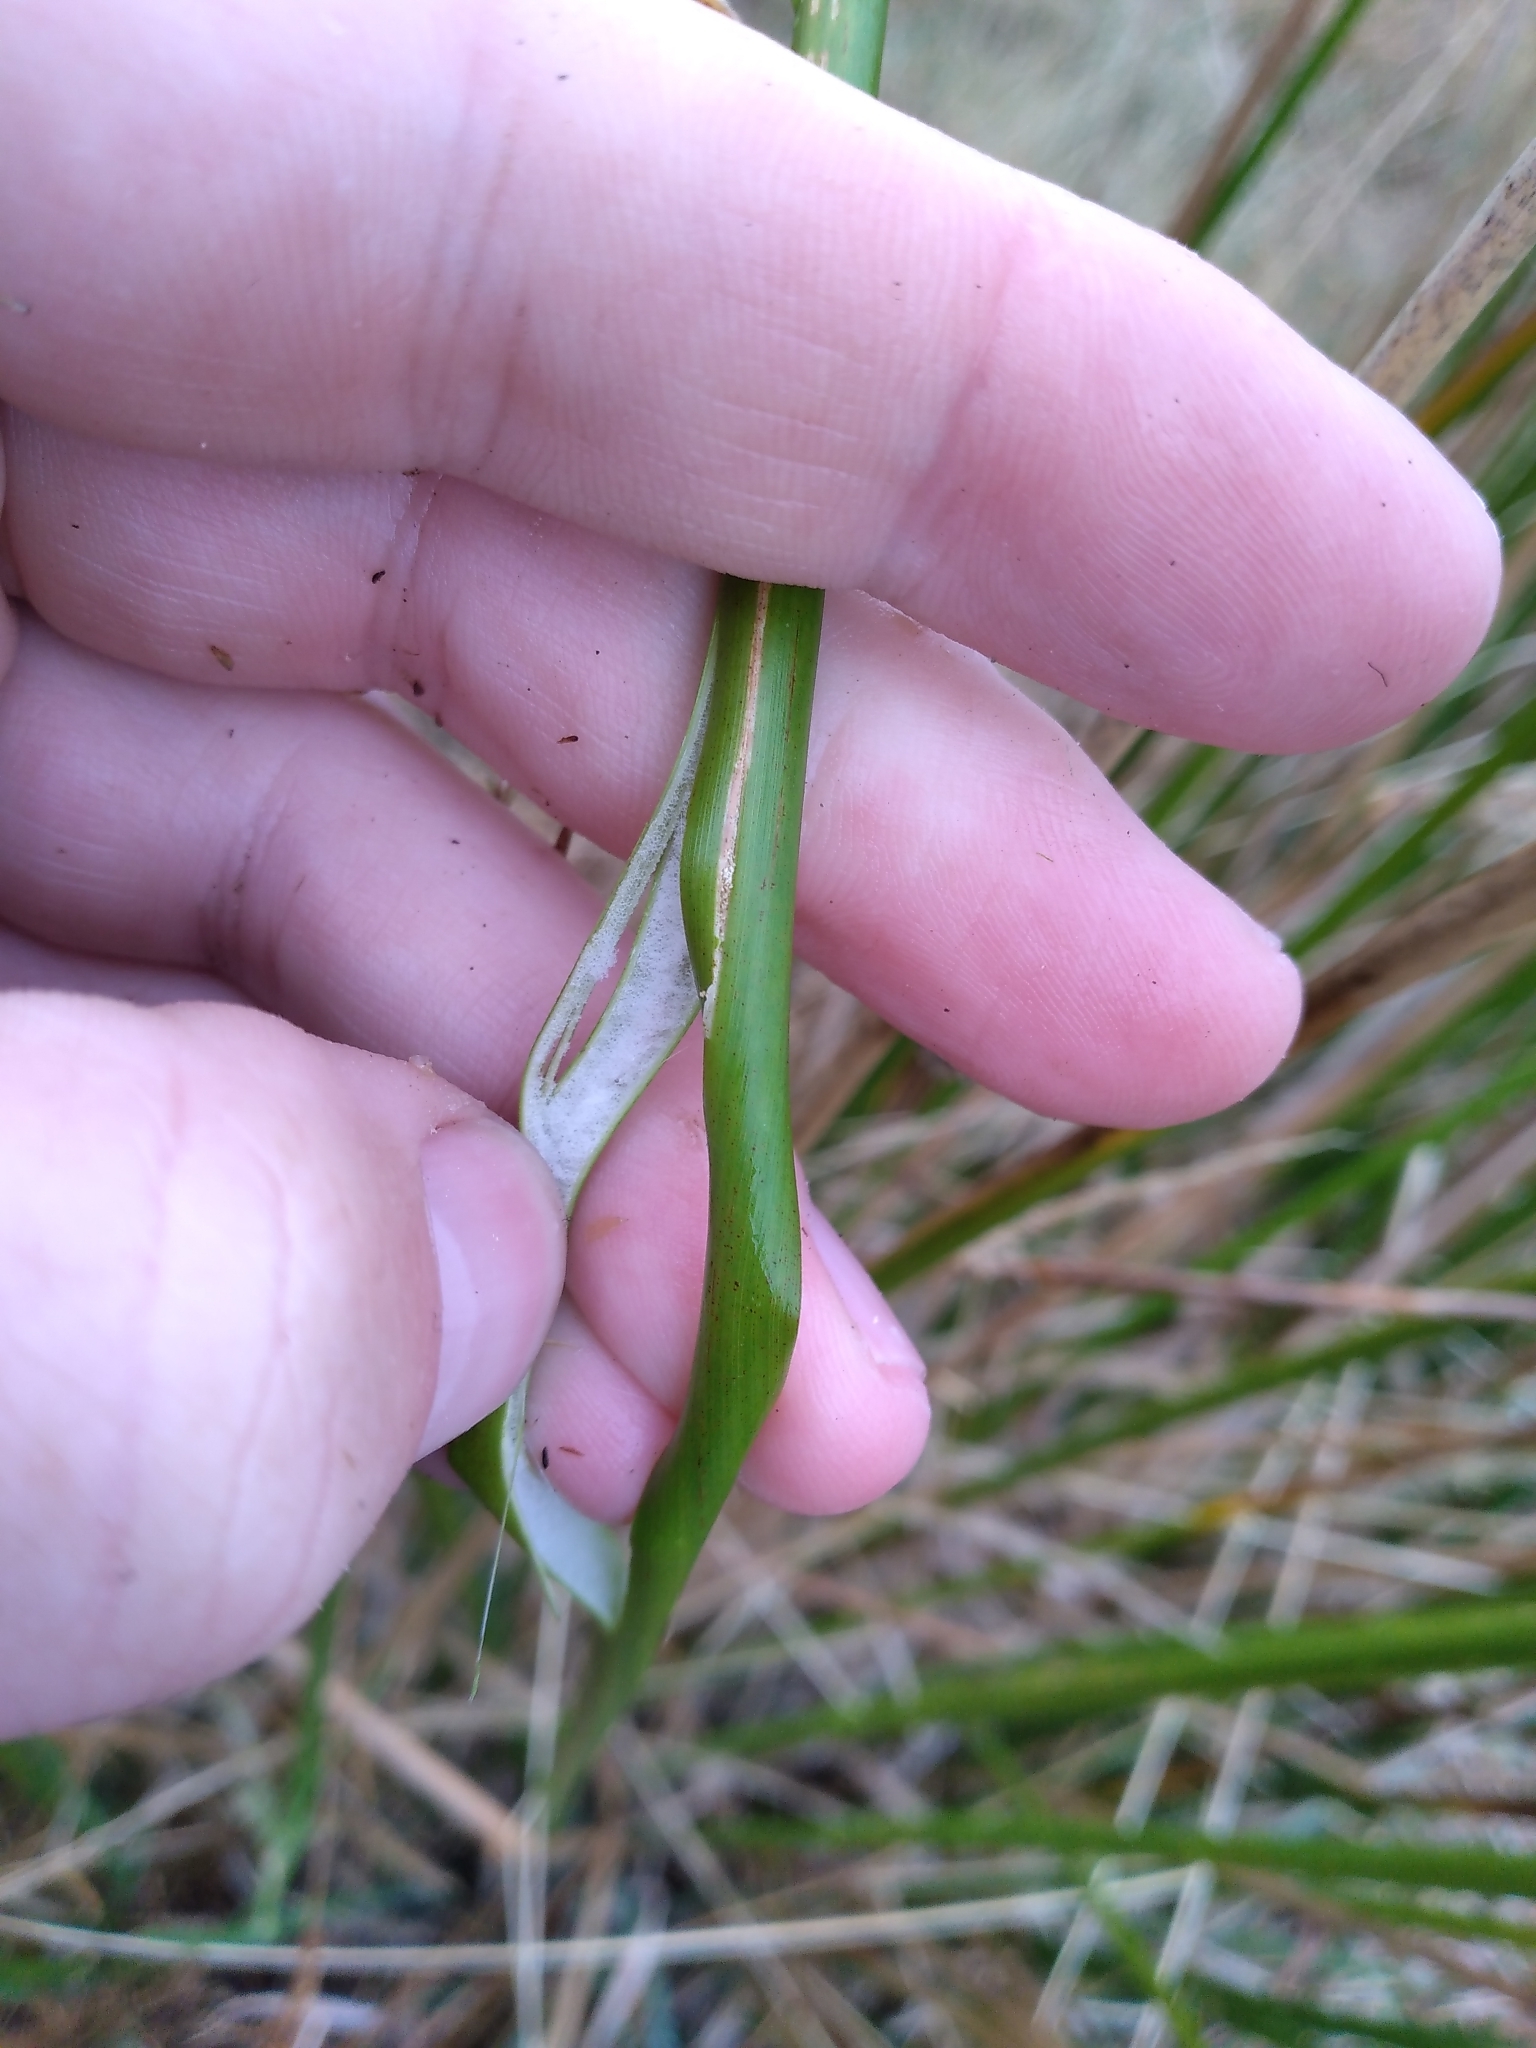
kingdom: Plantae
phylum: Tracheophyta
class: Liliopsida
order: Poales
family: Juncaceae
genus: Juncus
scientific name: Juncus pallidus
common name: Great soft-rush
